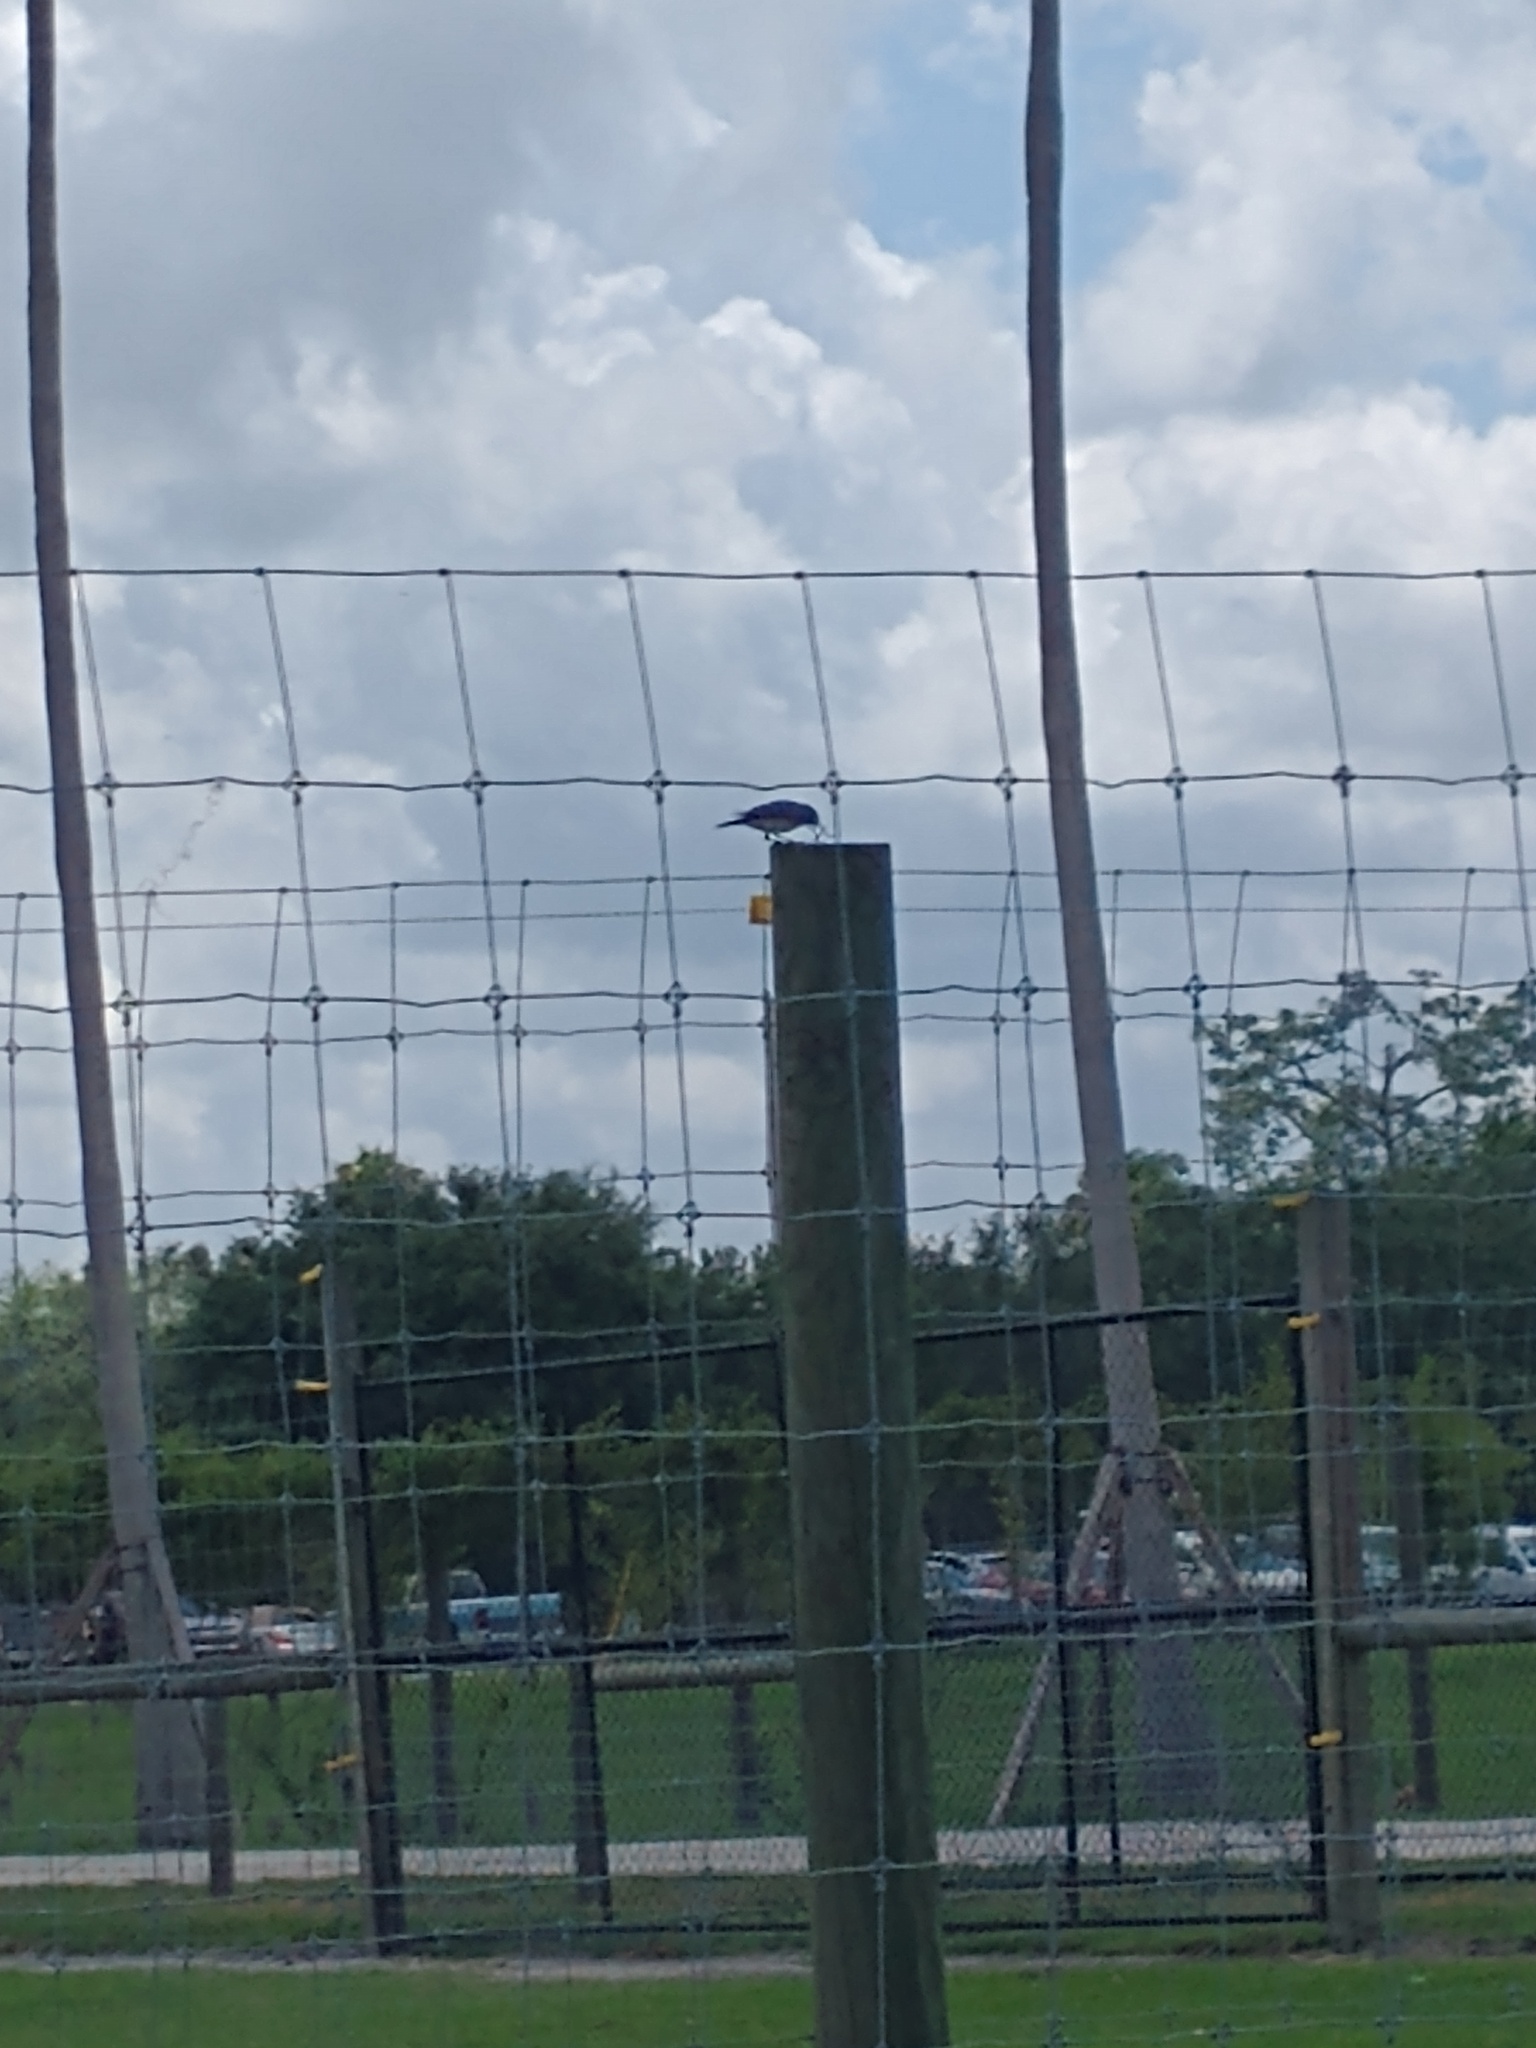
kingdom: Animalia
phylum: Chordata
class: Aves
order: Passeriformes
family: Turdidae
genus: Sialia
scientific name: Sialia sialis
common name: Eastern bluebird
